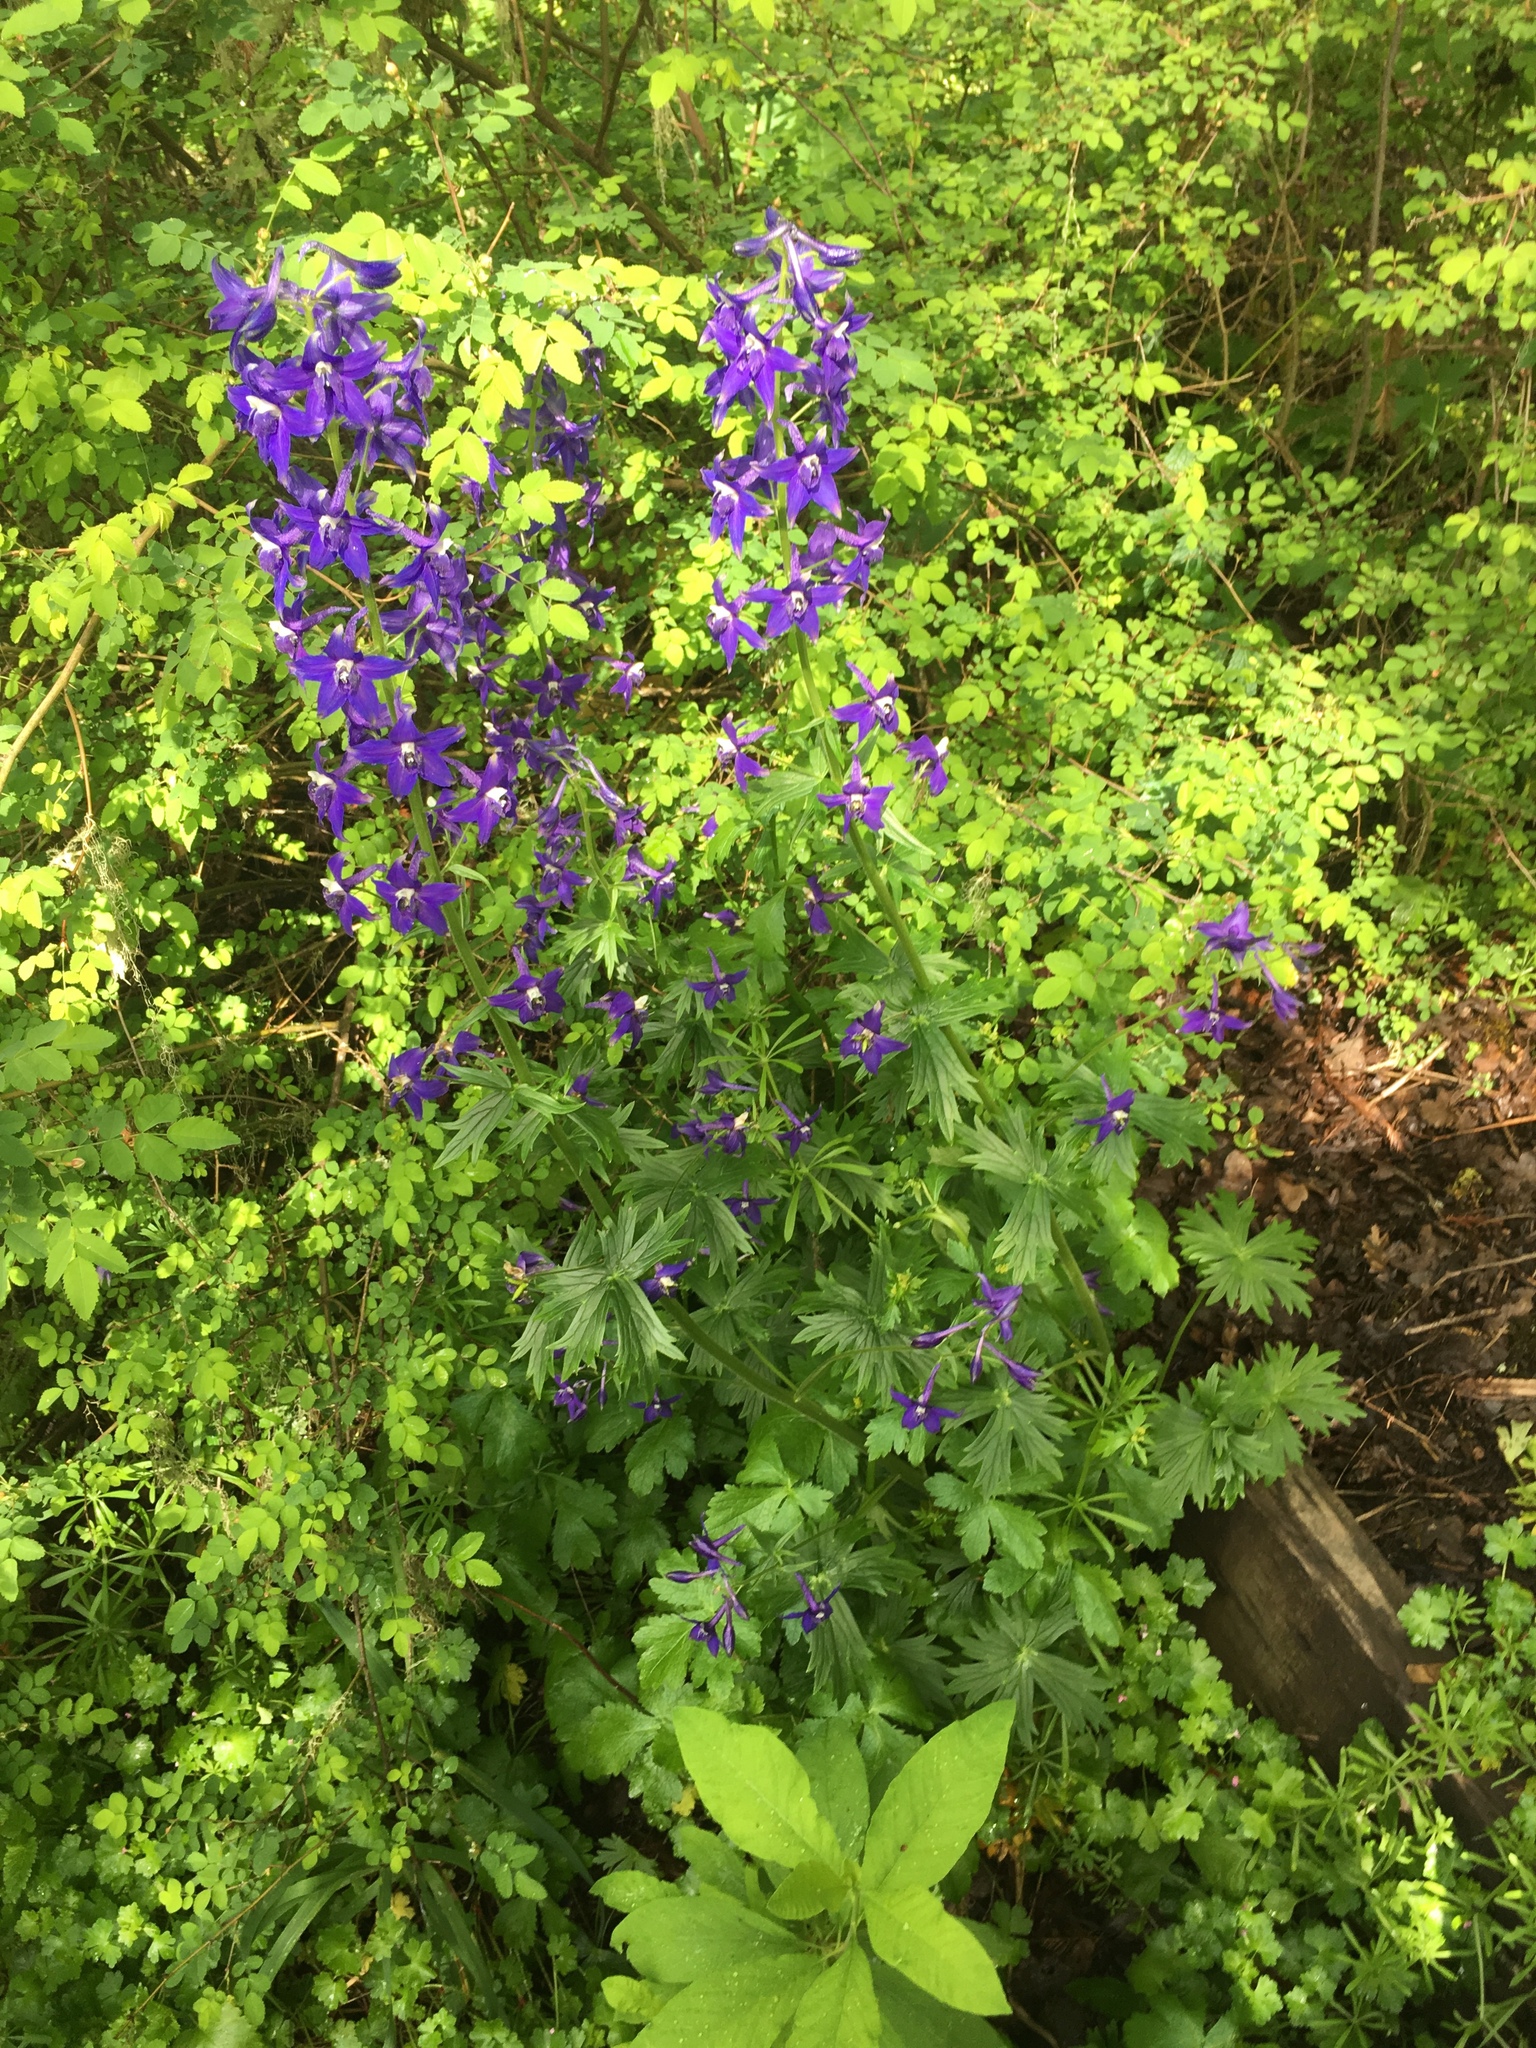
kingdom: Plantae
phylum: Tracheophyta
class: Magnoliopsida
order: Ranunculales
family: Ranunculaceae
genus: Delphinium
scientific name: Delphinium trolliifolium
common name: Cow-poison
